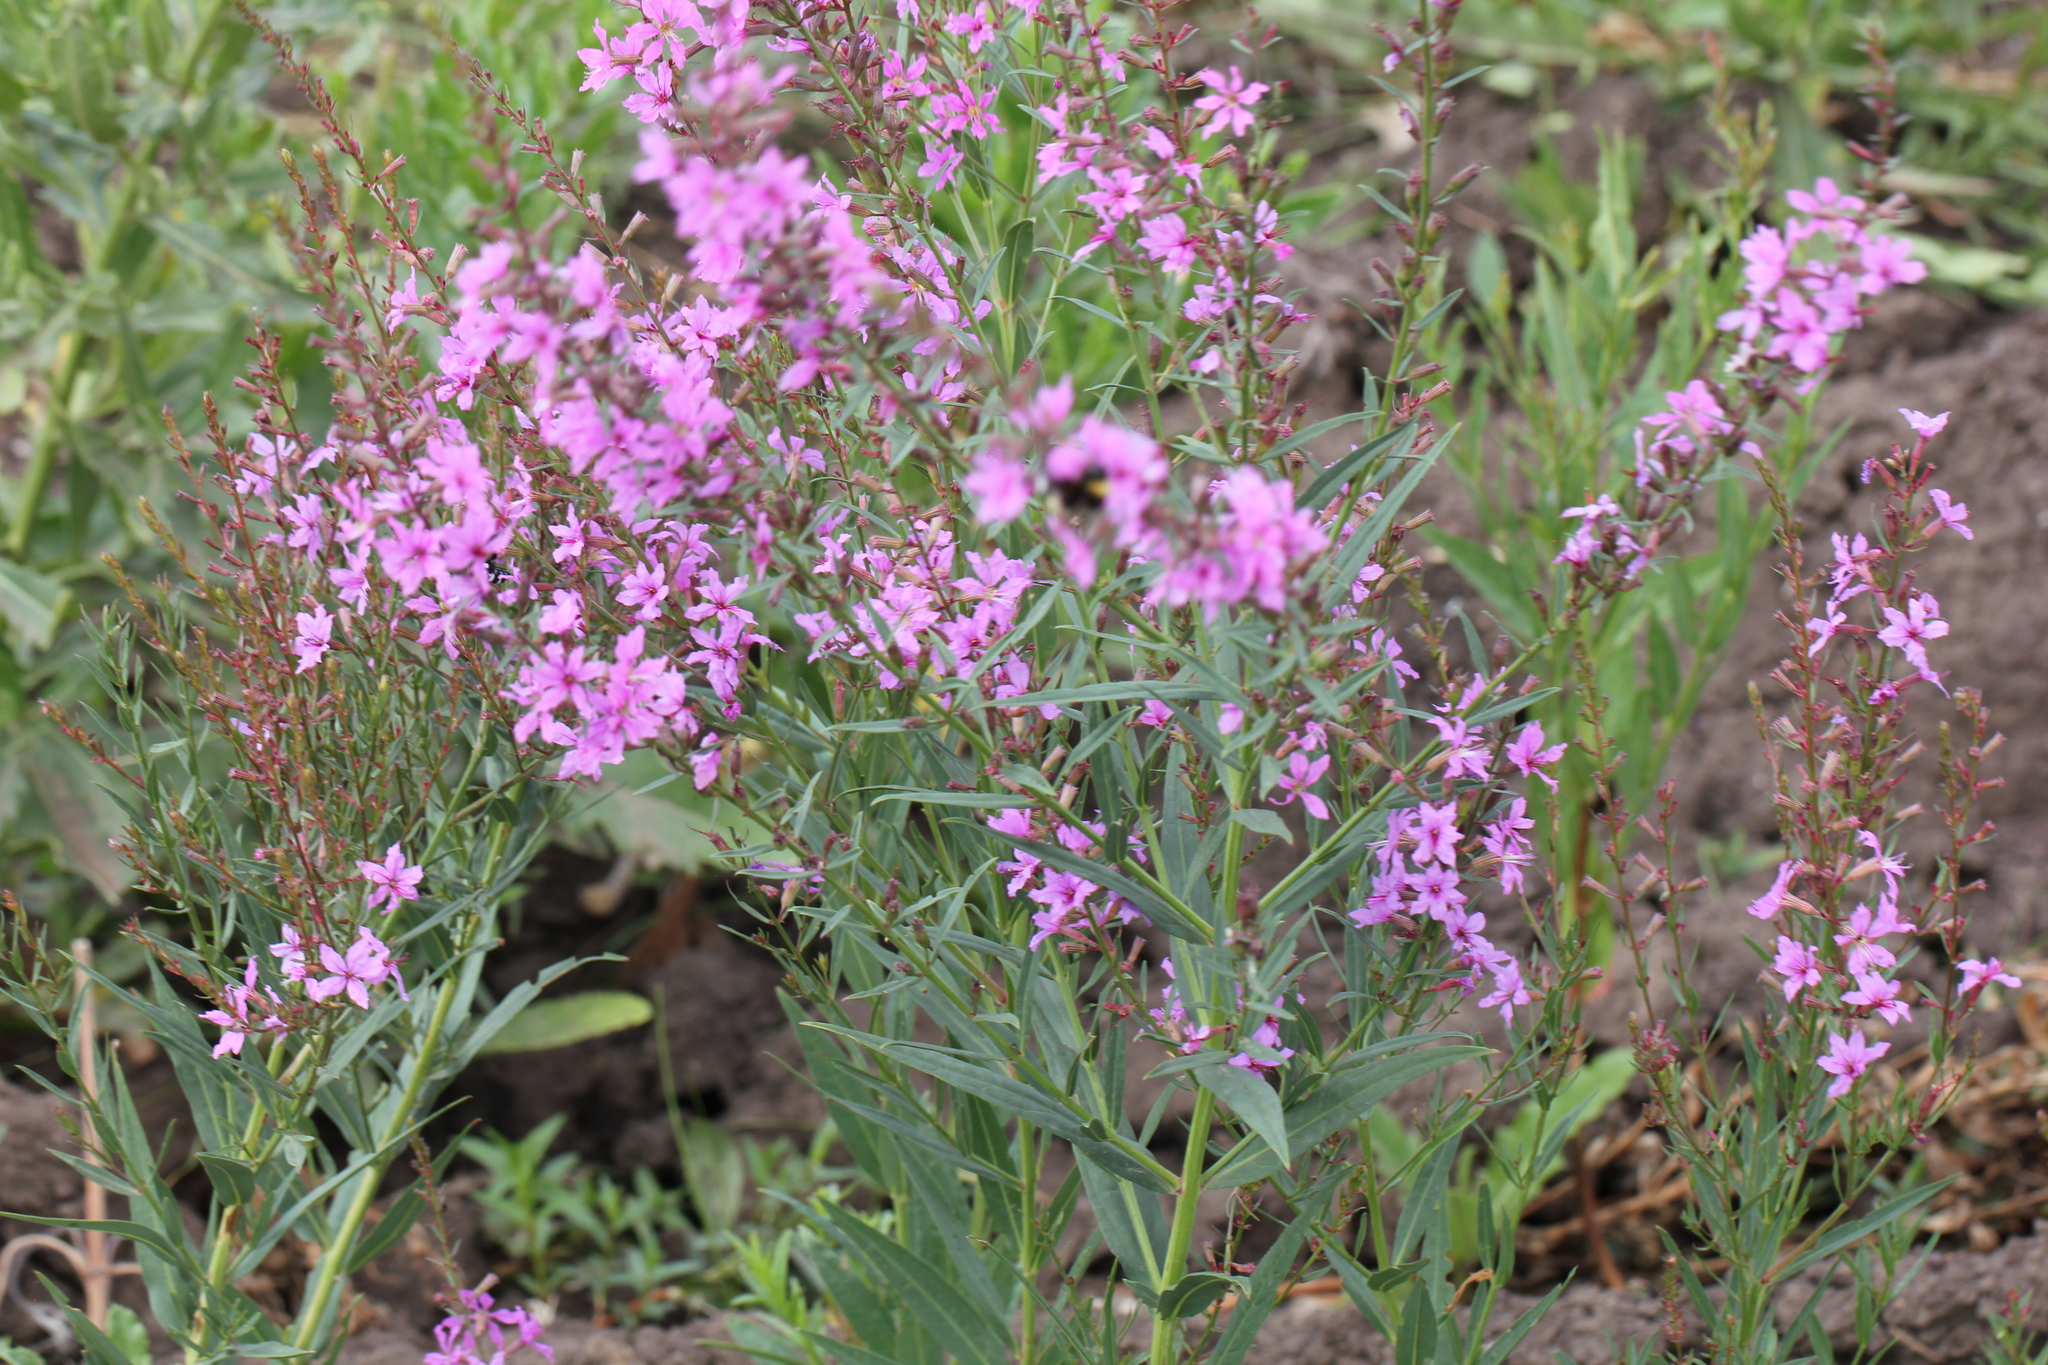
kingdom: Plantae
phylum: Tracheophyta
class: Magnoliopsida
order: Myrtales
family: Lythraceae
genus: Lythrum
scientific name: Lythrum virgatum
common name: European wand loosestrife
